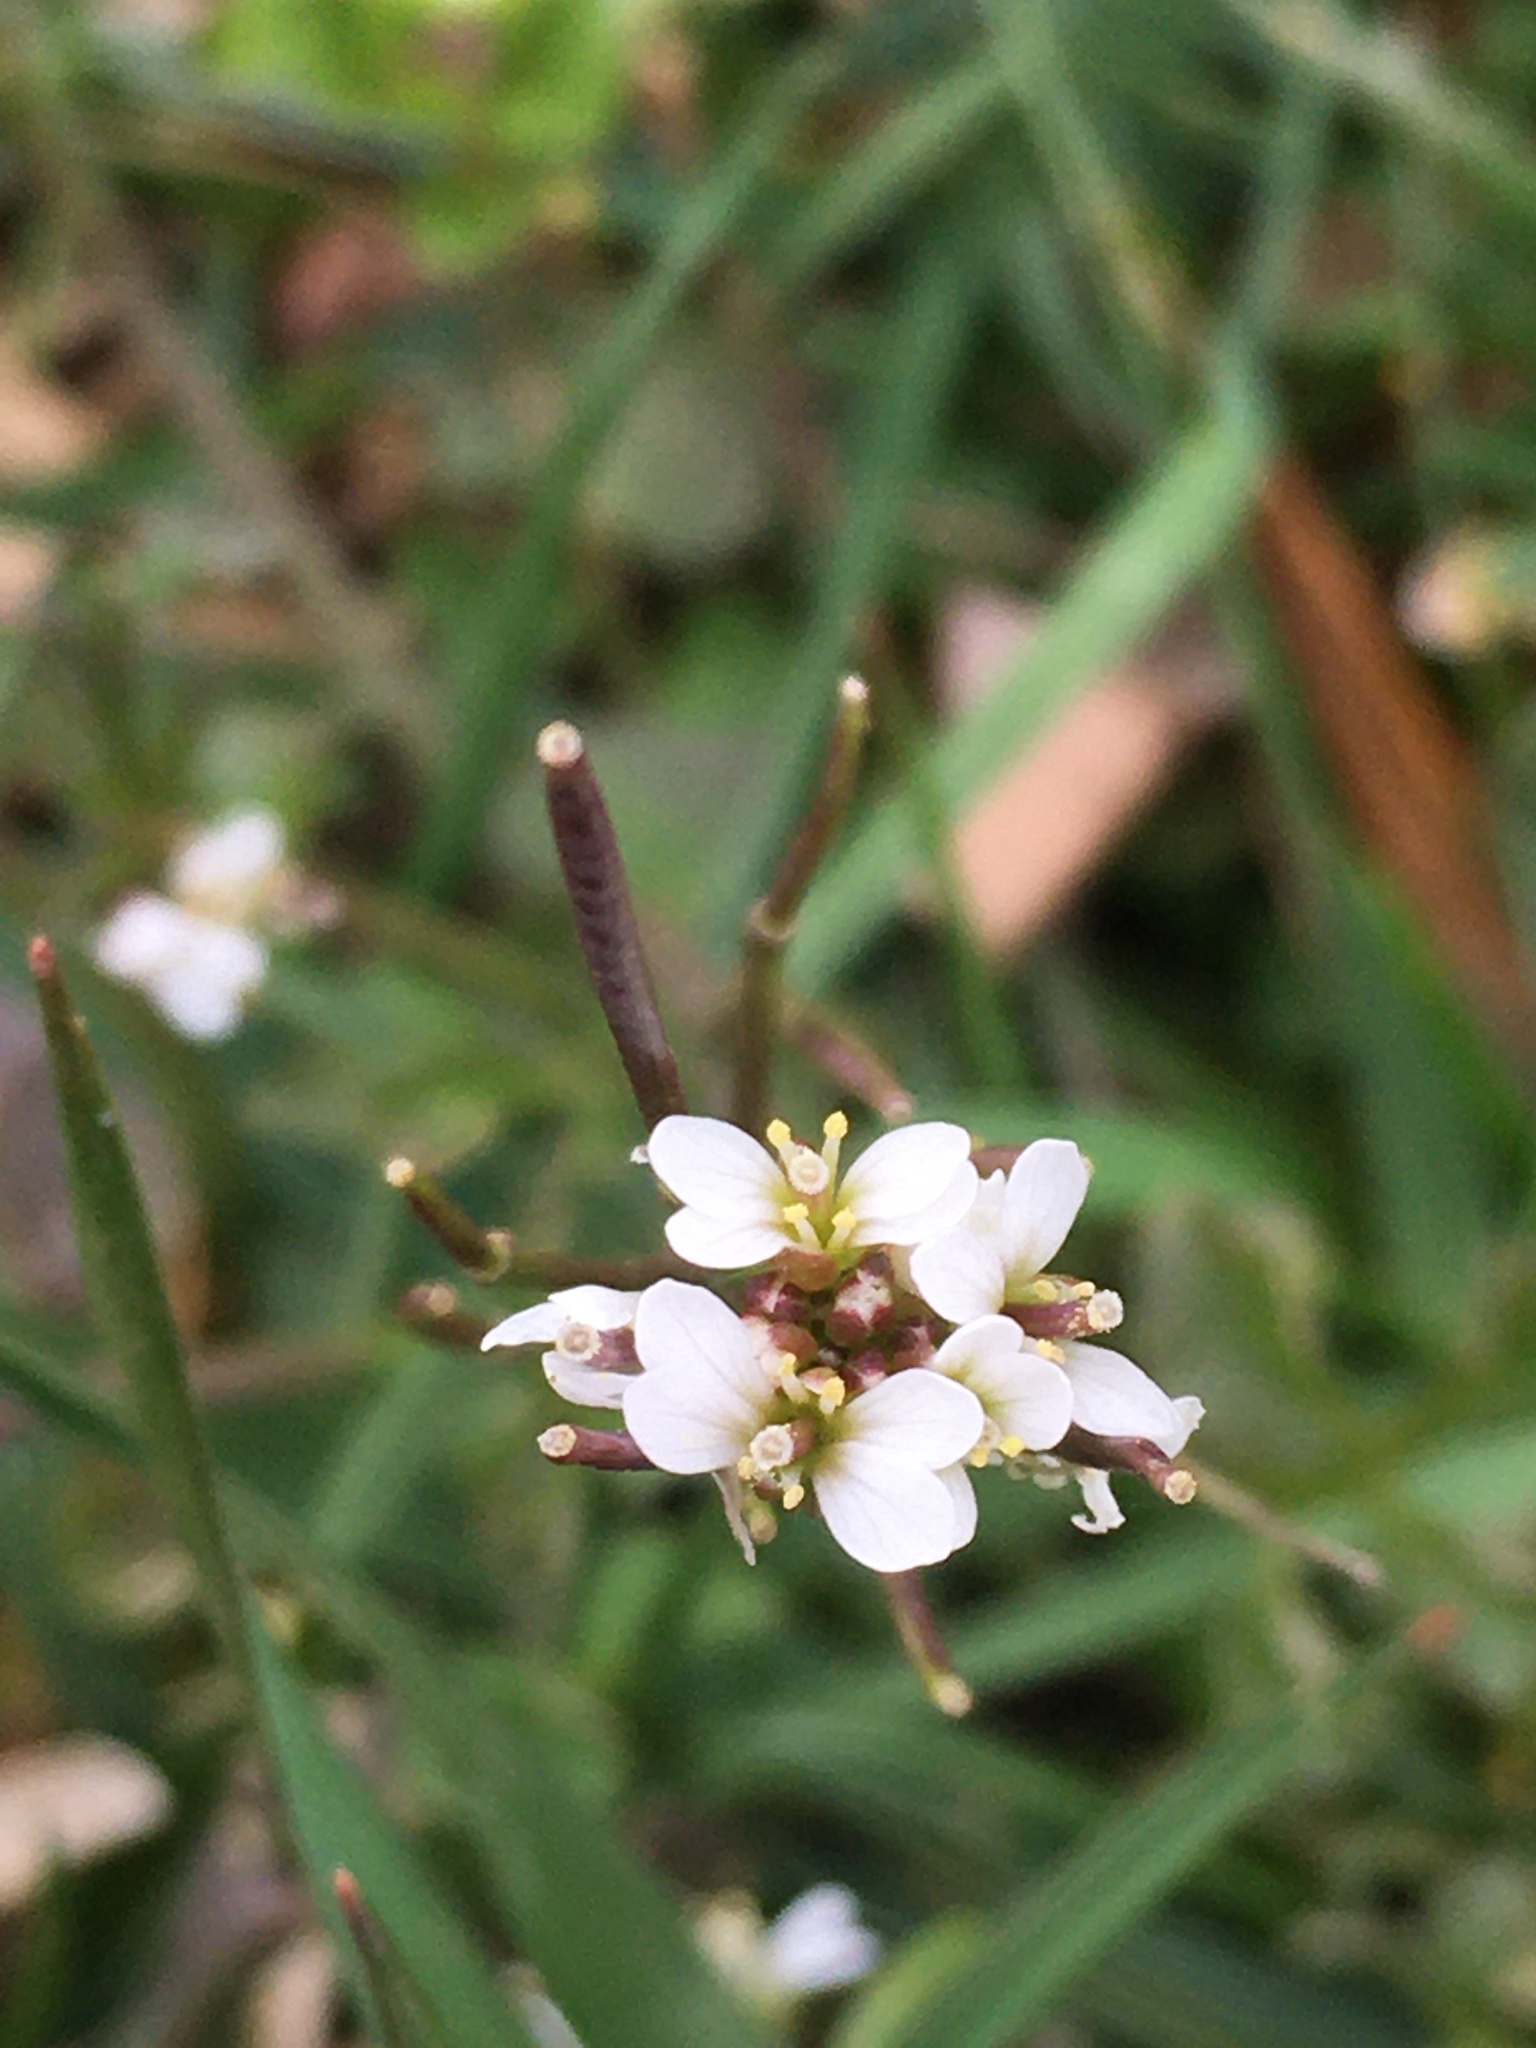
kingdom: Plantae
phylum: Tracheophyta
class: Magnoliopsida
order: Brassicales
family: Brassicaceae
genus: Cardamine
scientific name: Cardamine hirsuta
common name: Hairy bittercress
